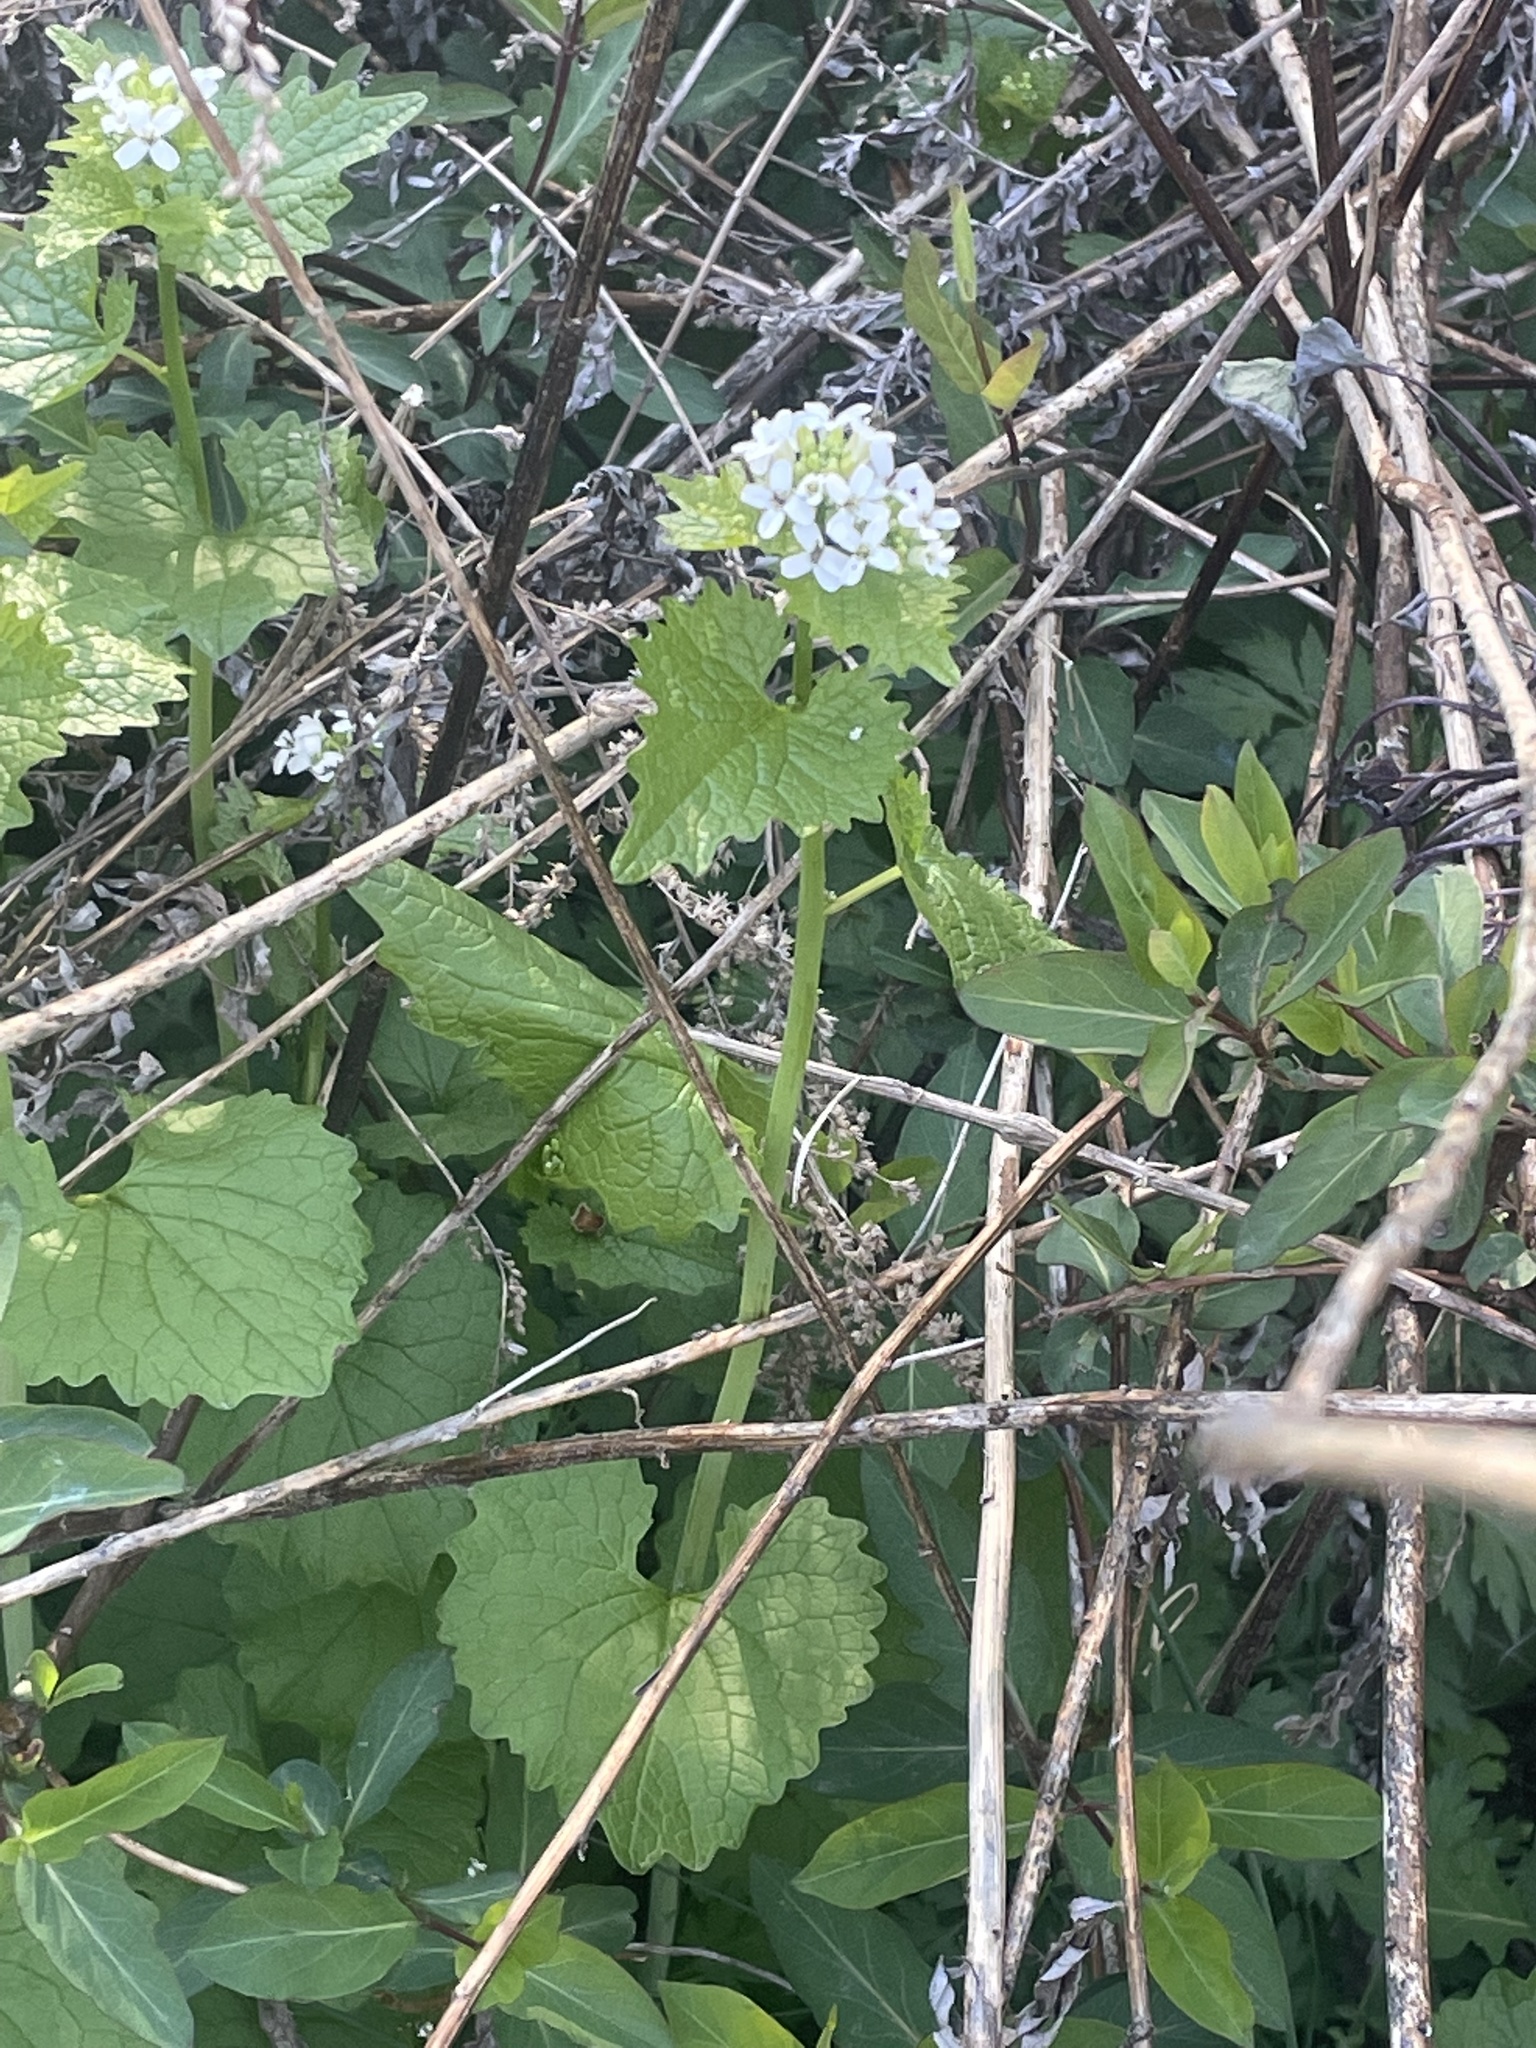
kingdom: Plantae
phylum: Tracheophyta
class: Magnoliopsida
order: Brassicales
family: Brassicaceae
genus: Alliaria
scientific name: Alliaria petiolata
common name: Garlic mustard
